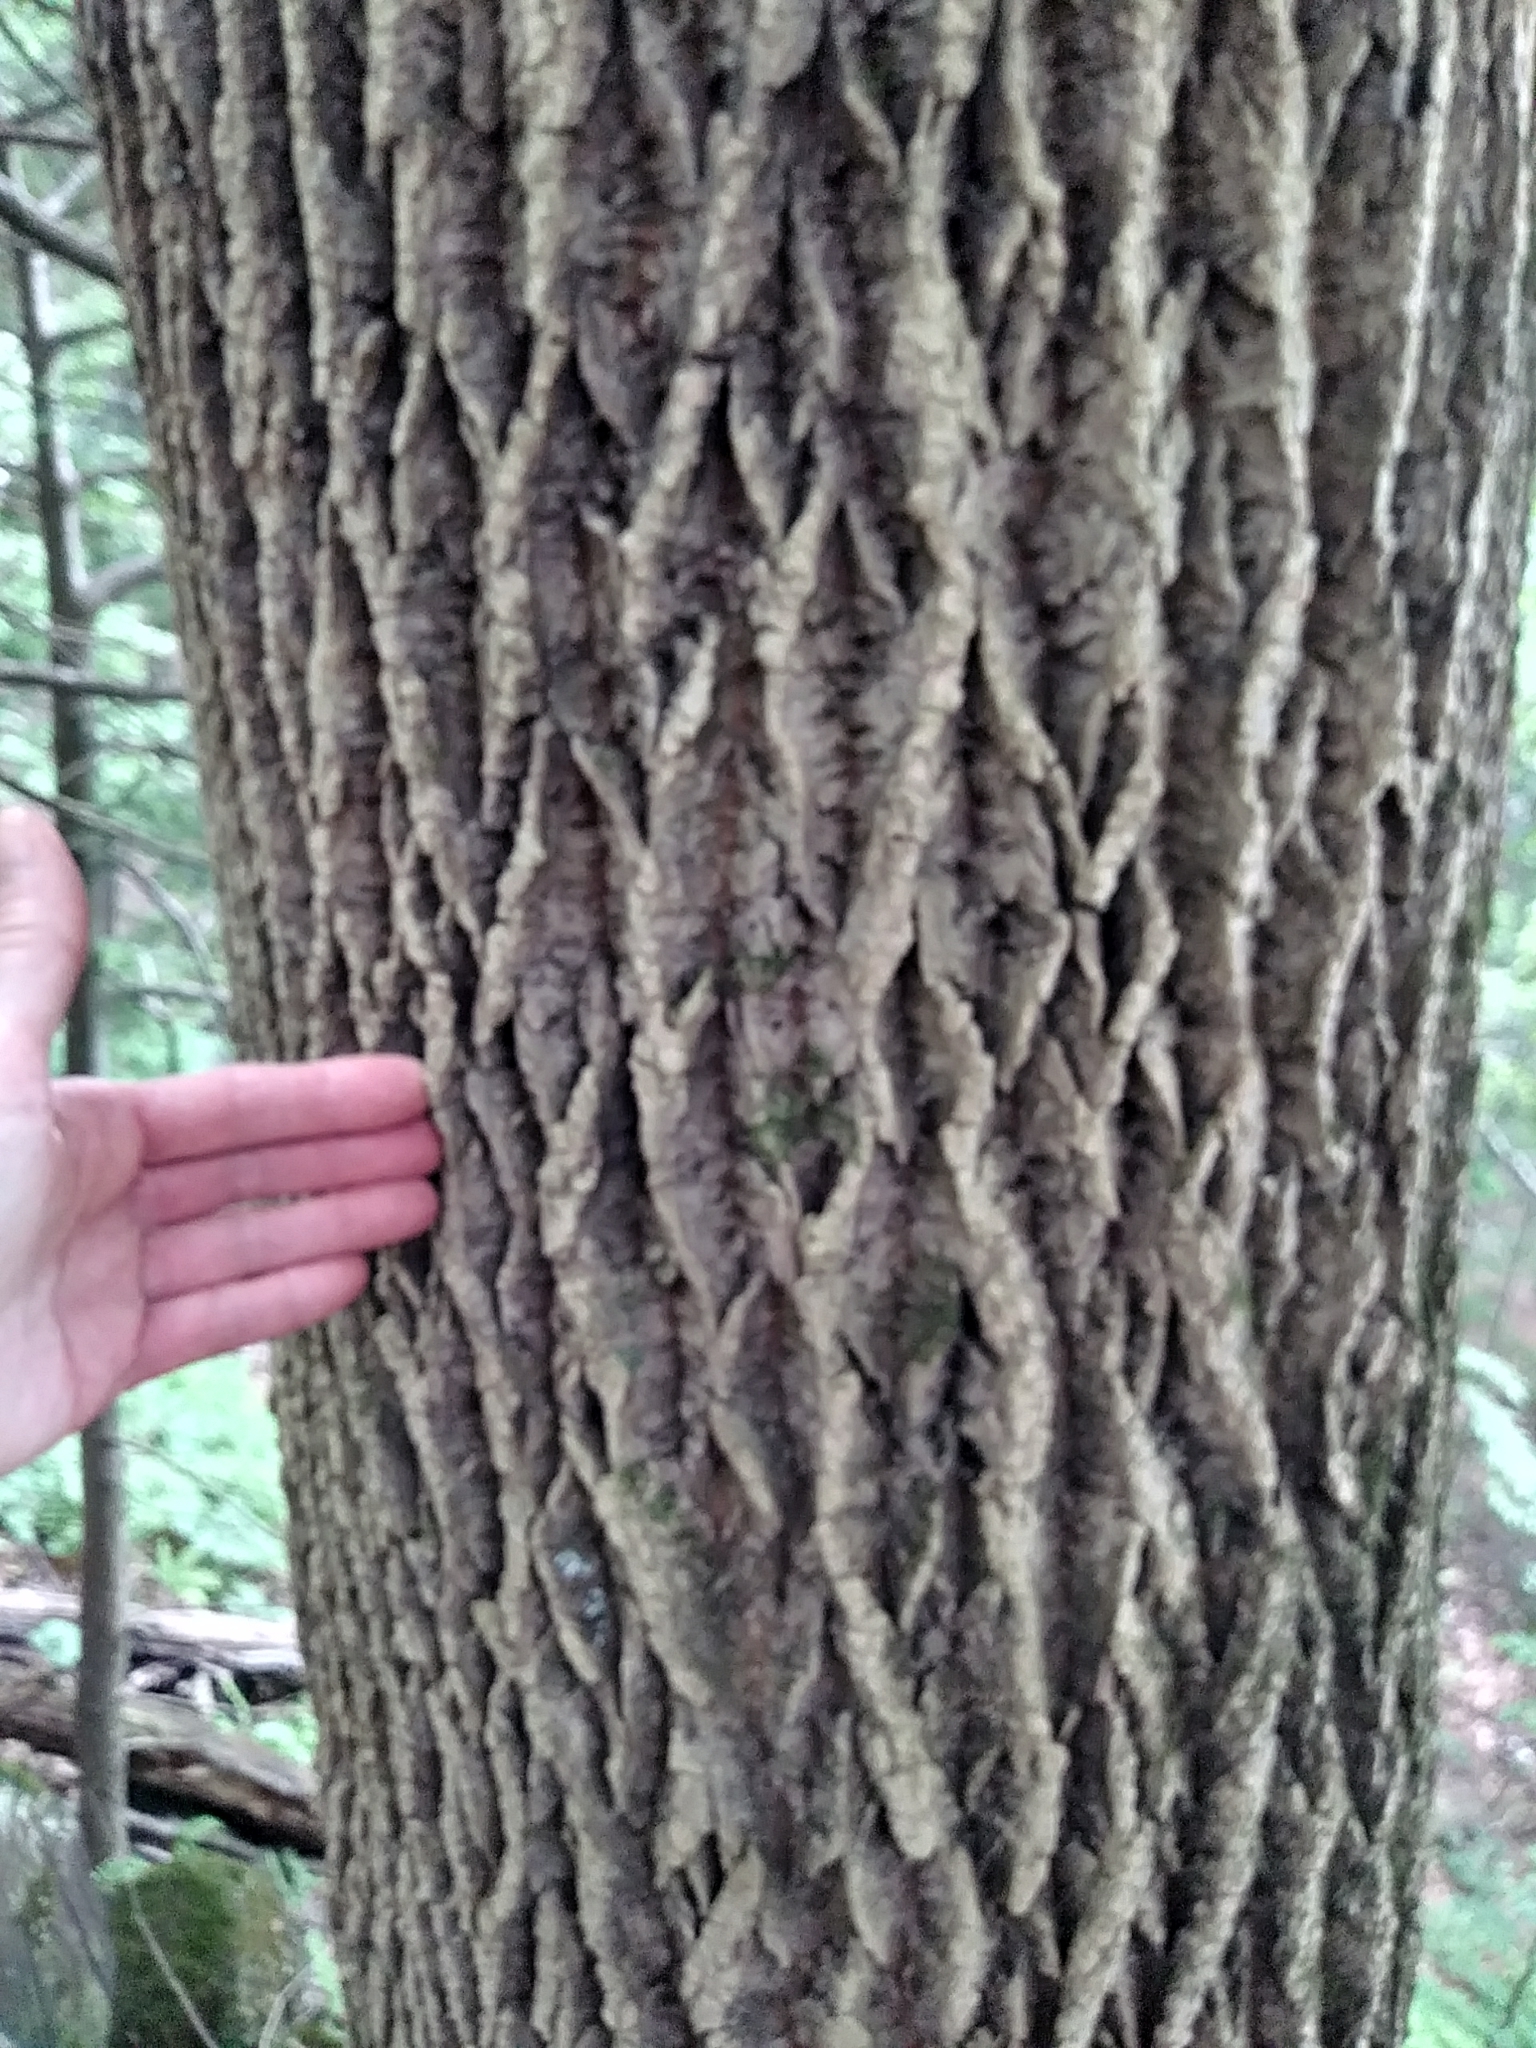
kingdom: Plantae
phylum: Tracheophyta
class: Magnoliopsida
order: Lamiales
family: Oleaceae
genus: Fraxinus
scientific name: Fraxinus americana
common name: White ash
